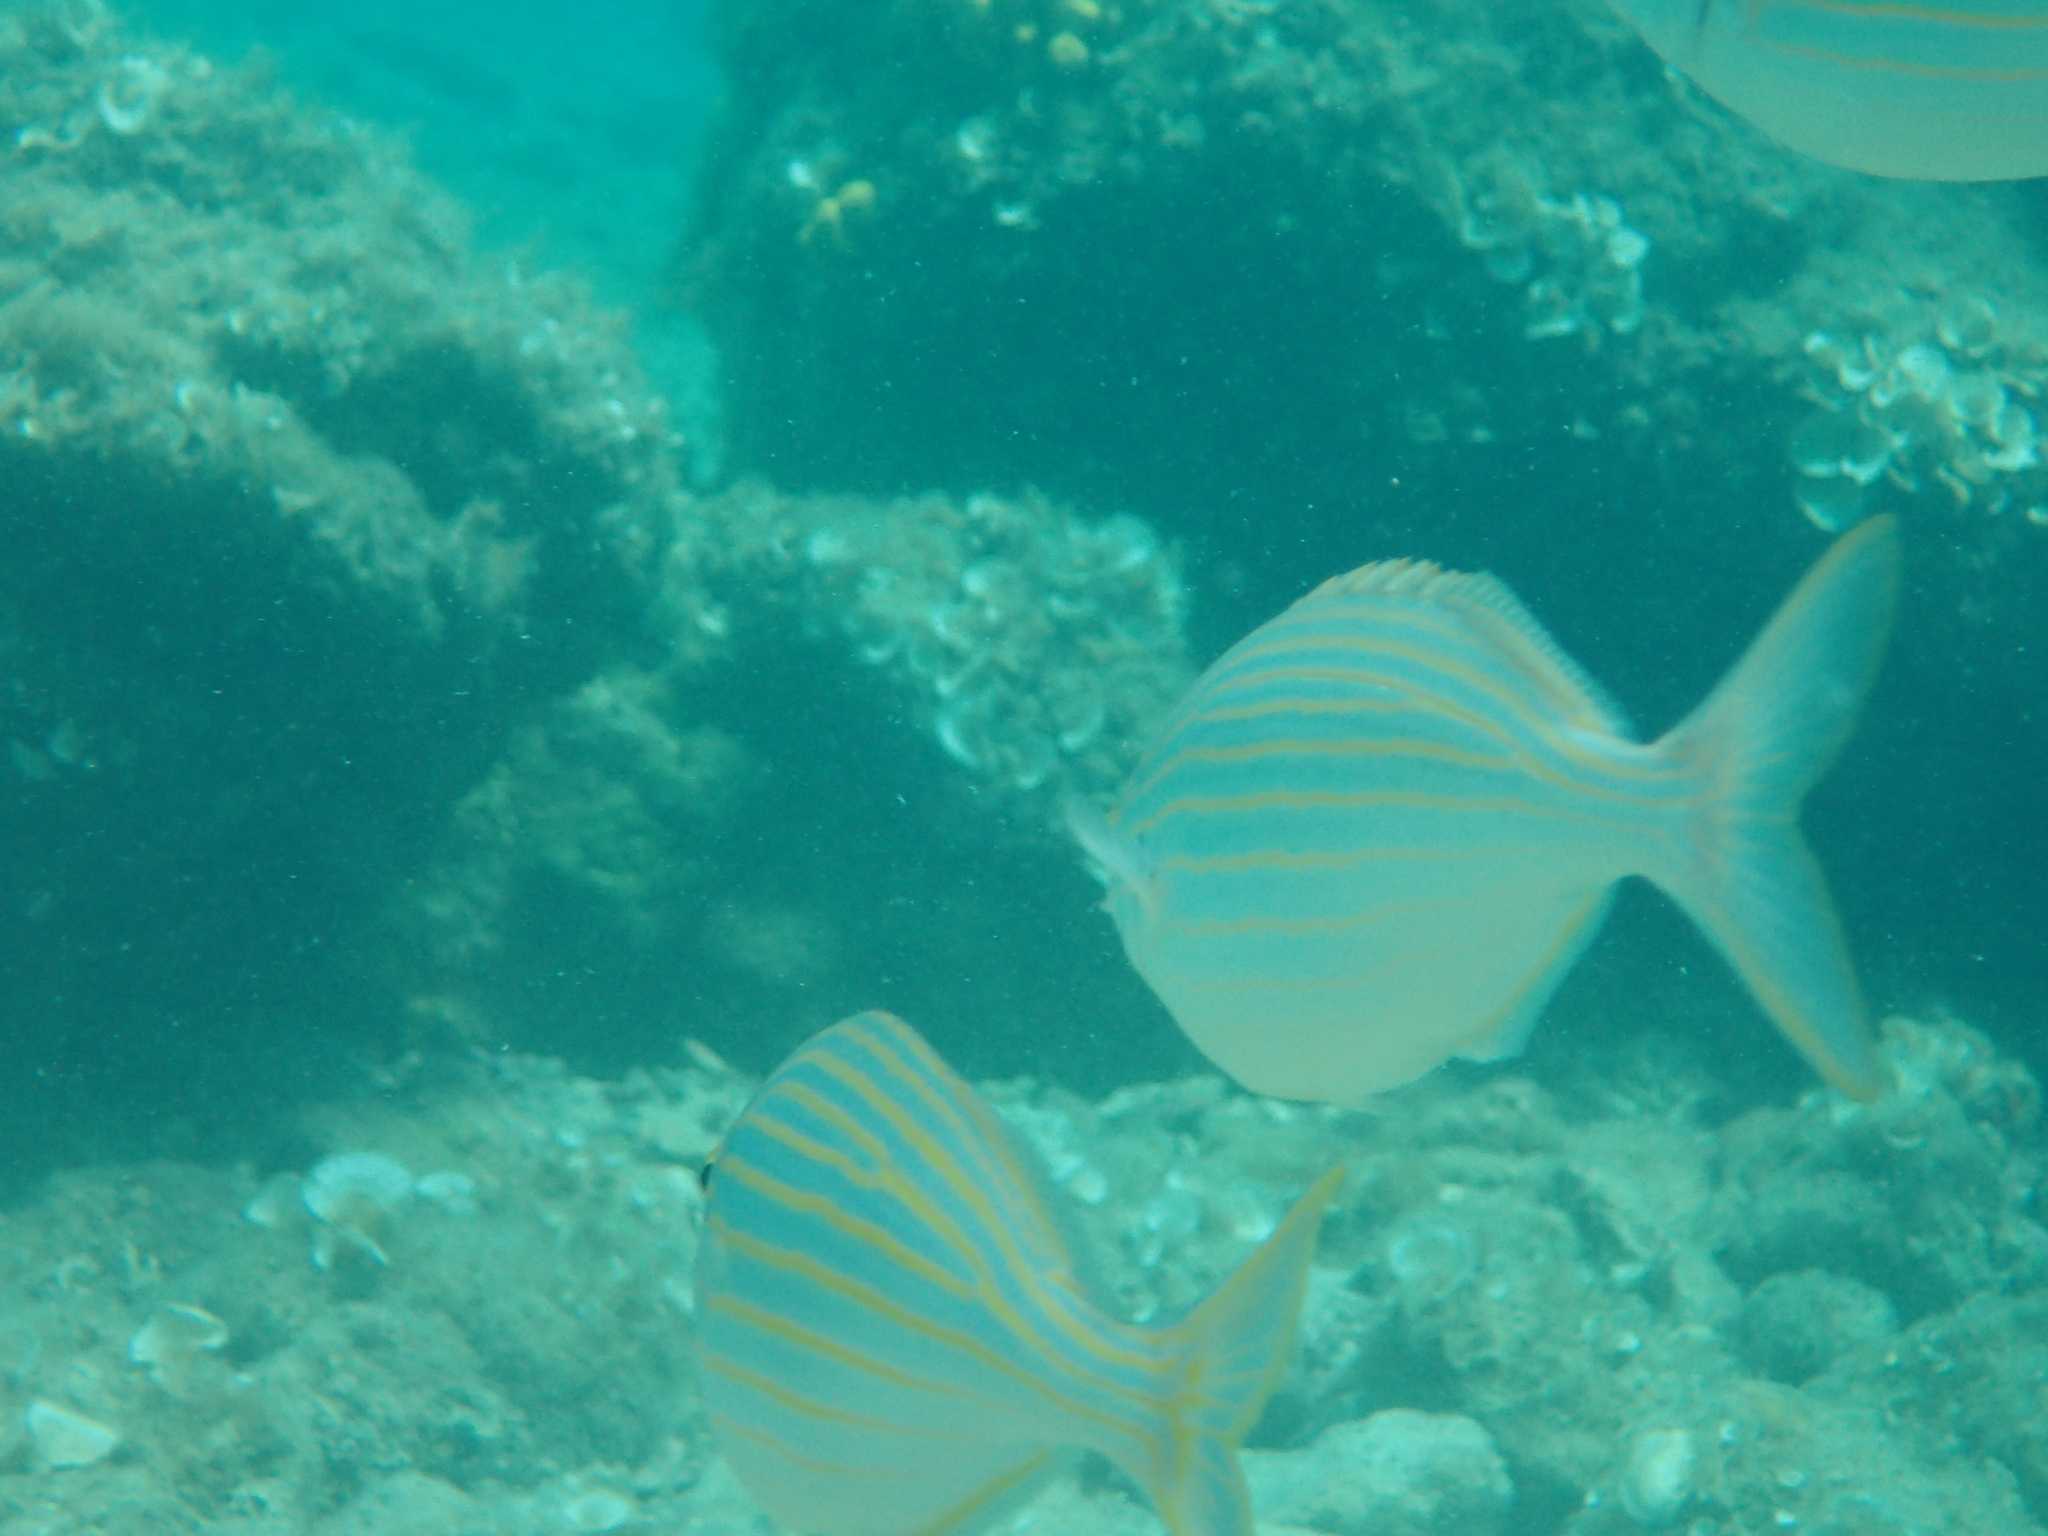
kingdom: Animalia
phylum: Chordata
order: Perciformes
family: Sparidae
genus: Sarpa
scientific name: Sarpa salpa
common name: Salema
